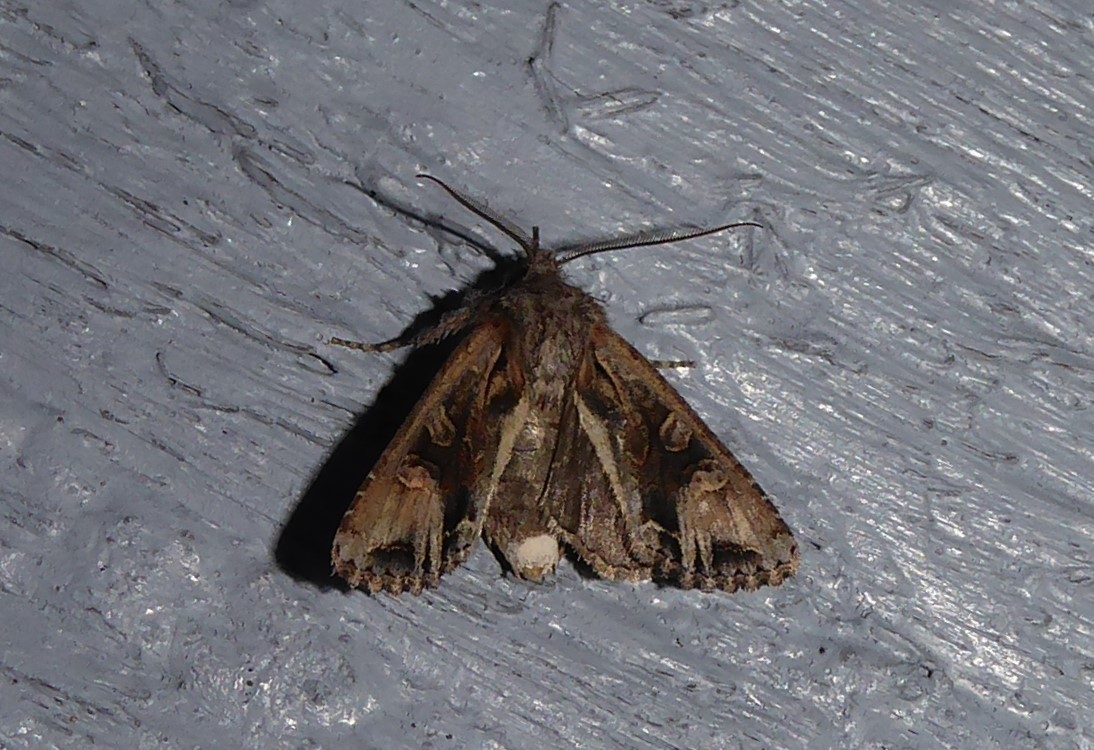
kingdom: Animalia
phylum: Arthropoda
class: Insecta
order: Lepidoptera
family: Noctuidae
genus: Ichneutica
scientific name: Ichneutica
